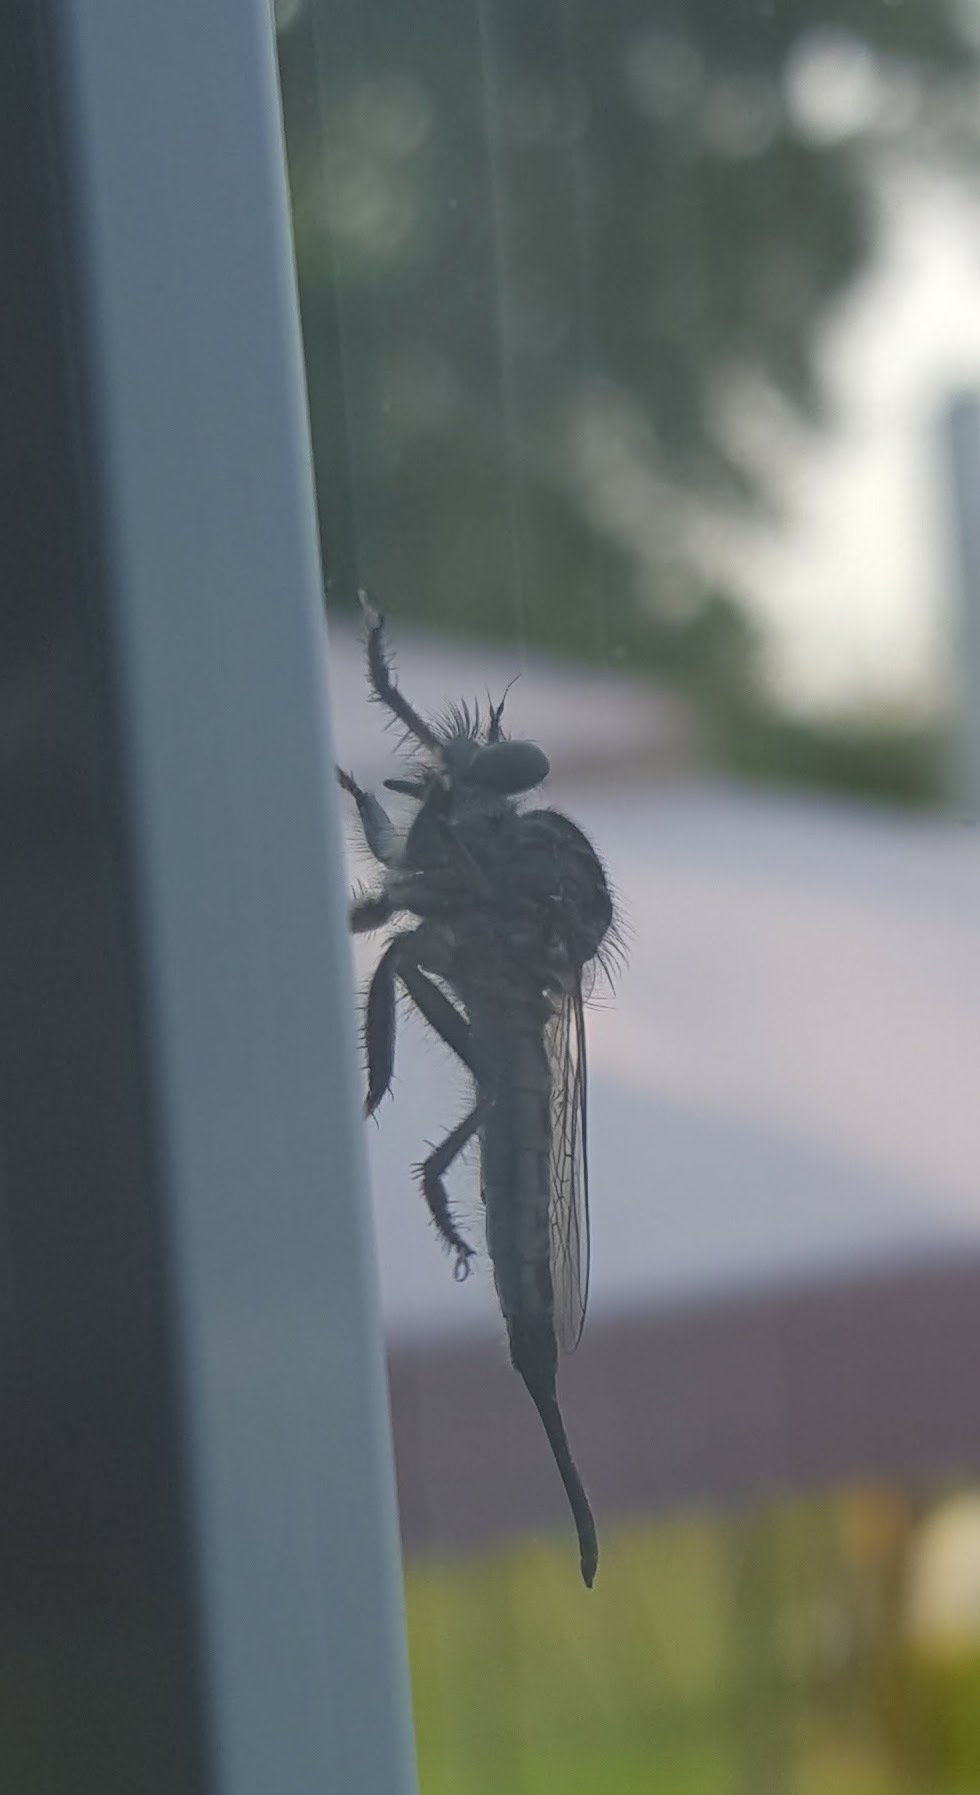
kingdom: Animalia
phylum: Arthropoda
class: Insecta
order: Diptera
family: Asilidae
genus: Efferia
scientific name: Efferia
